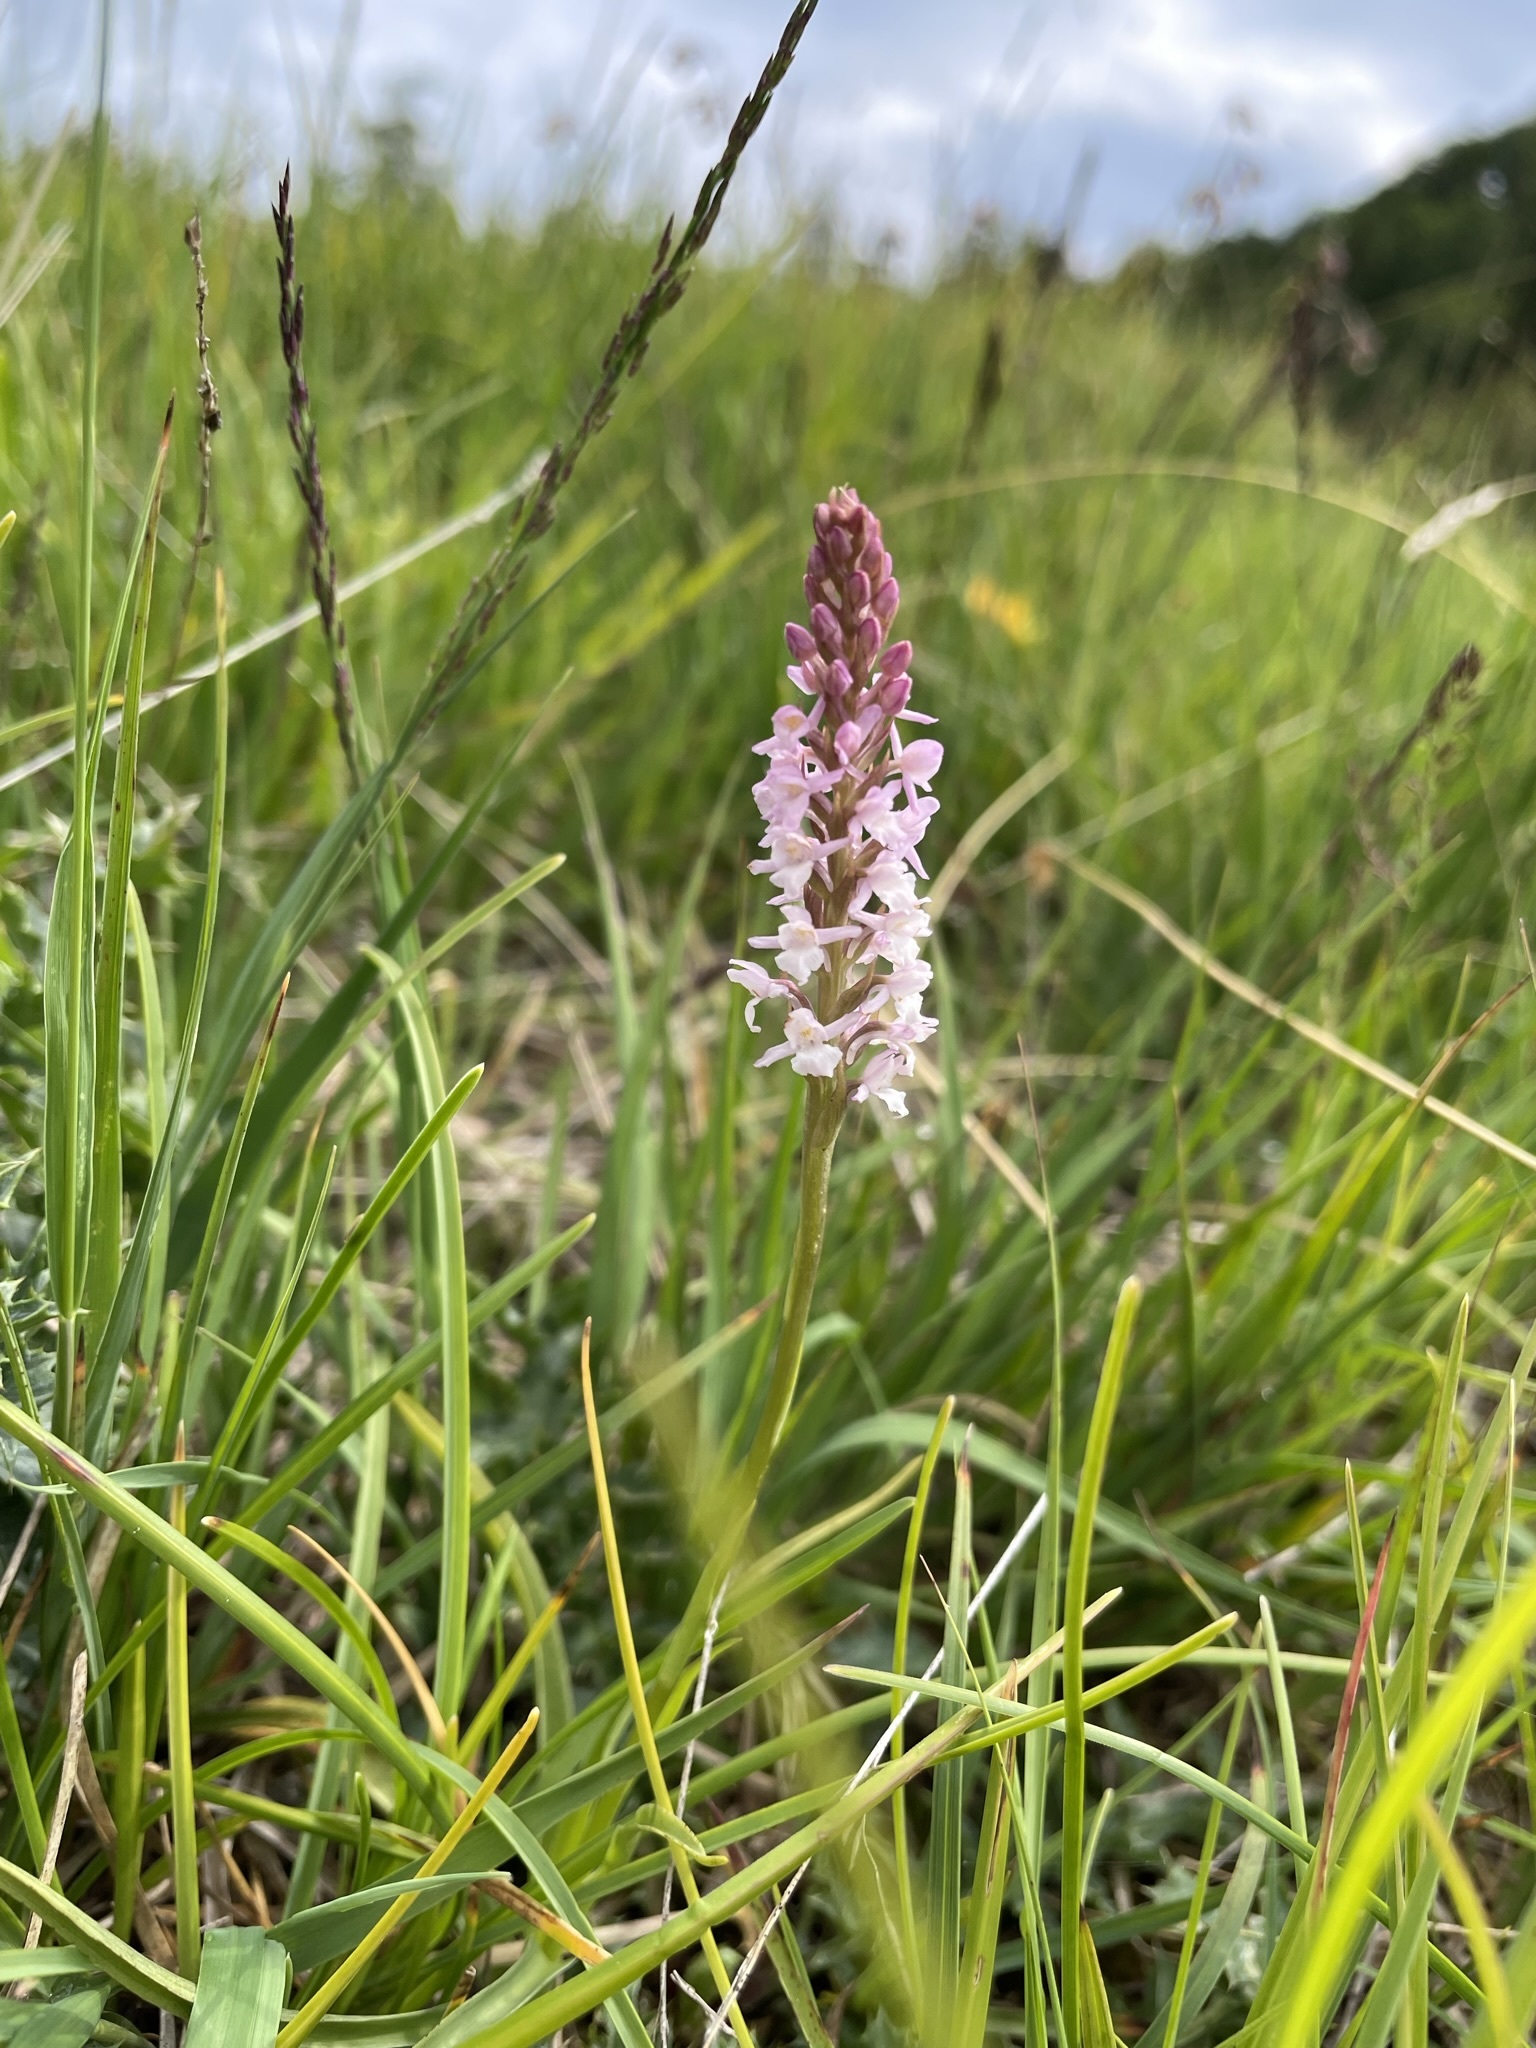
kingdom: Plantae
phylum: Tracheophyta
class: Liliopsida
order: Asparagales
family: Orchidaceae
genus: Gymnadenia
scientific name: Gymnadenia odoratissima
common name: Scented gymnadenia
